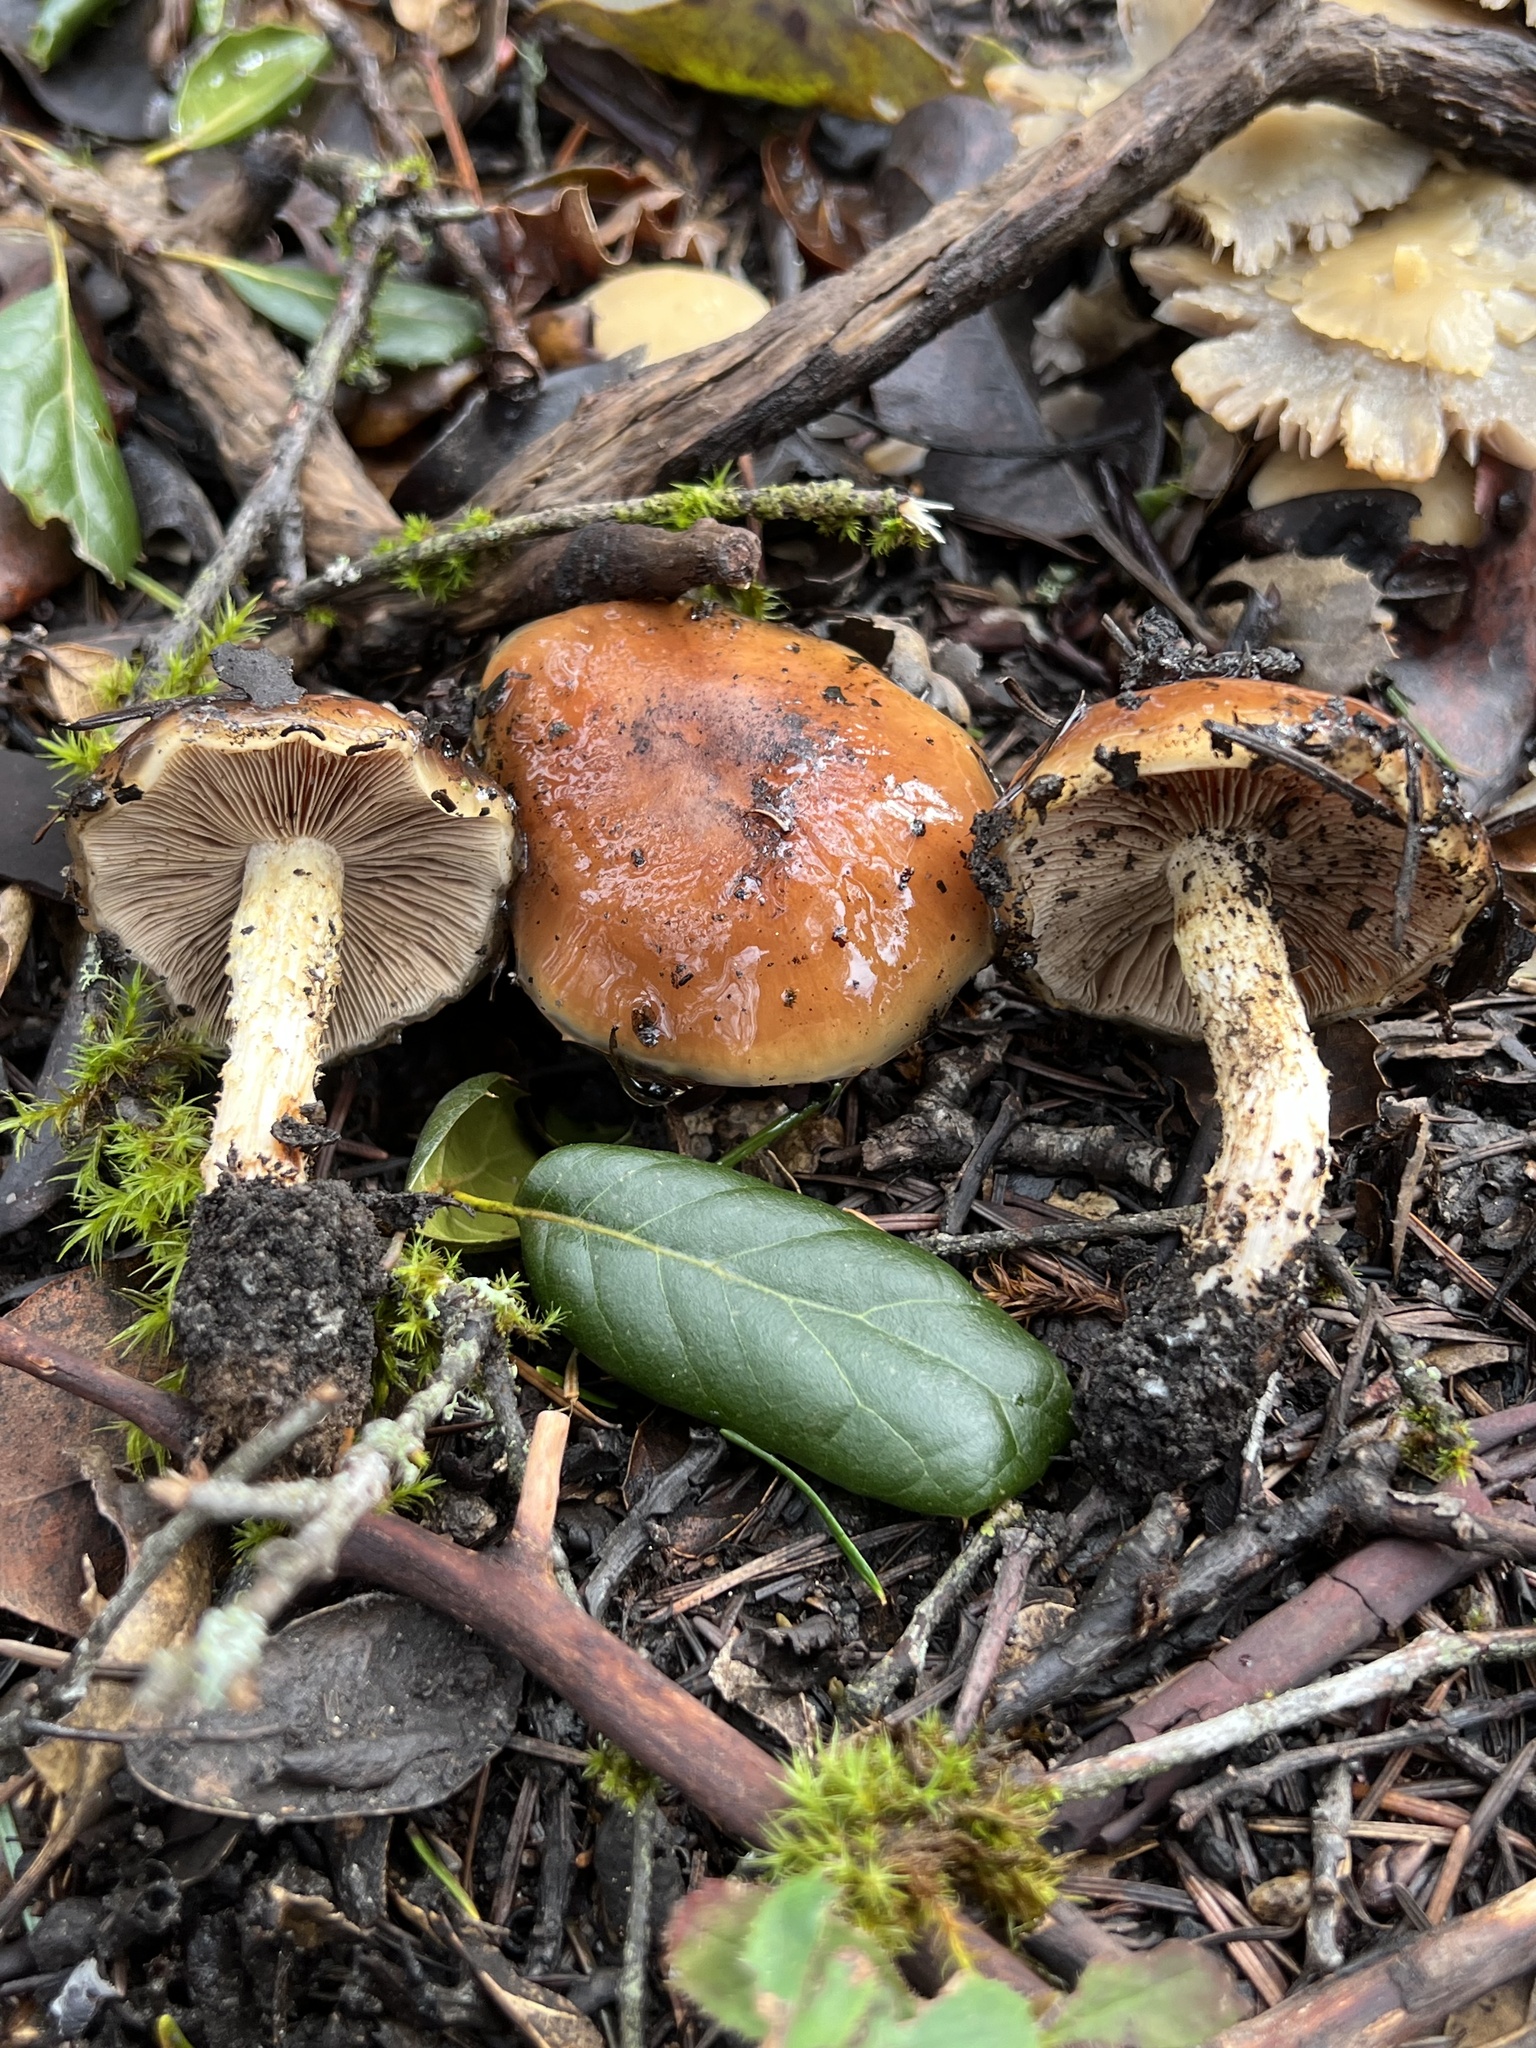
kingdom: Fungi
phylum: Basidiomycota
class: Agaricomycetes
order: Agaricales
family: Strophariaceae
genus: Pholiota
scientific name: Pholiota velaglutinosa
